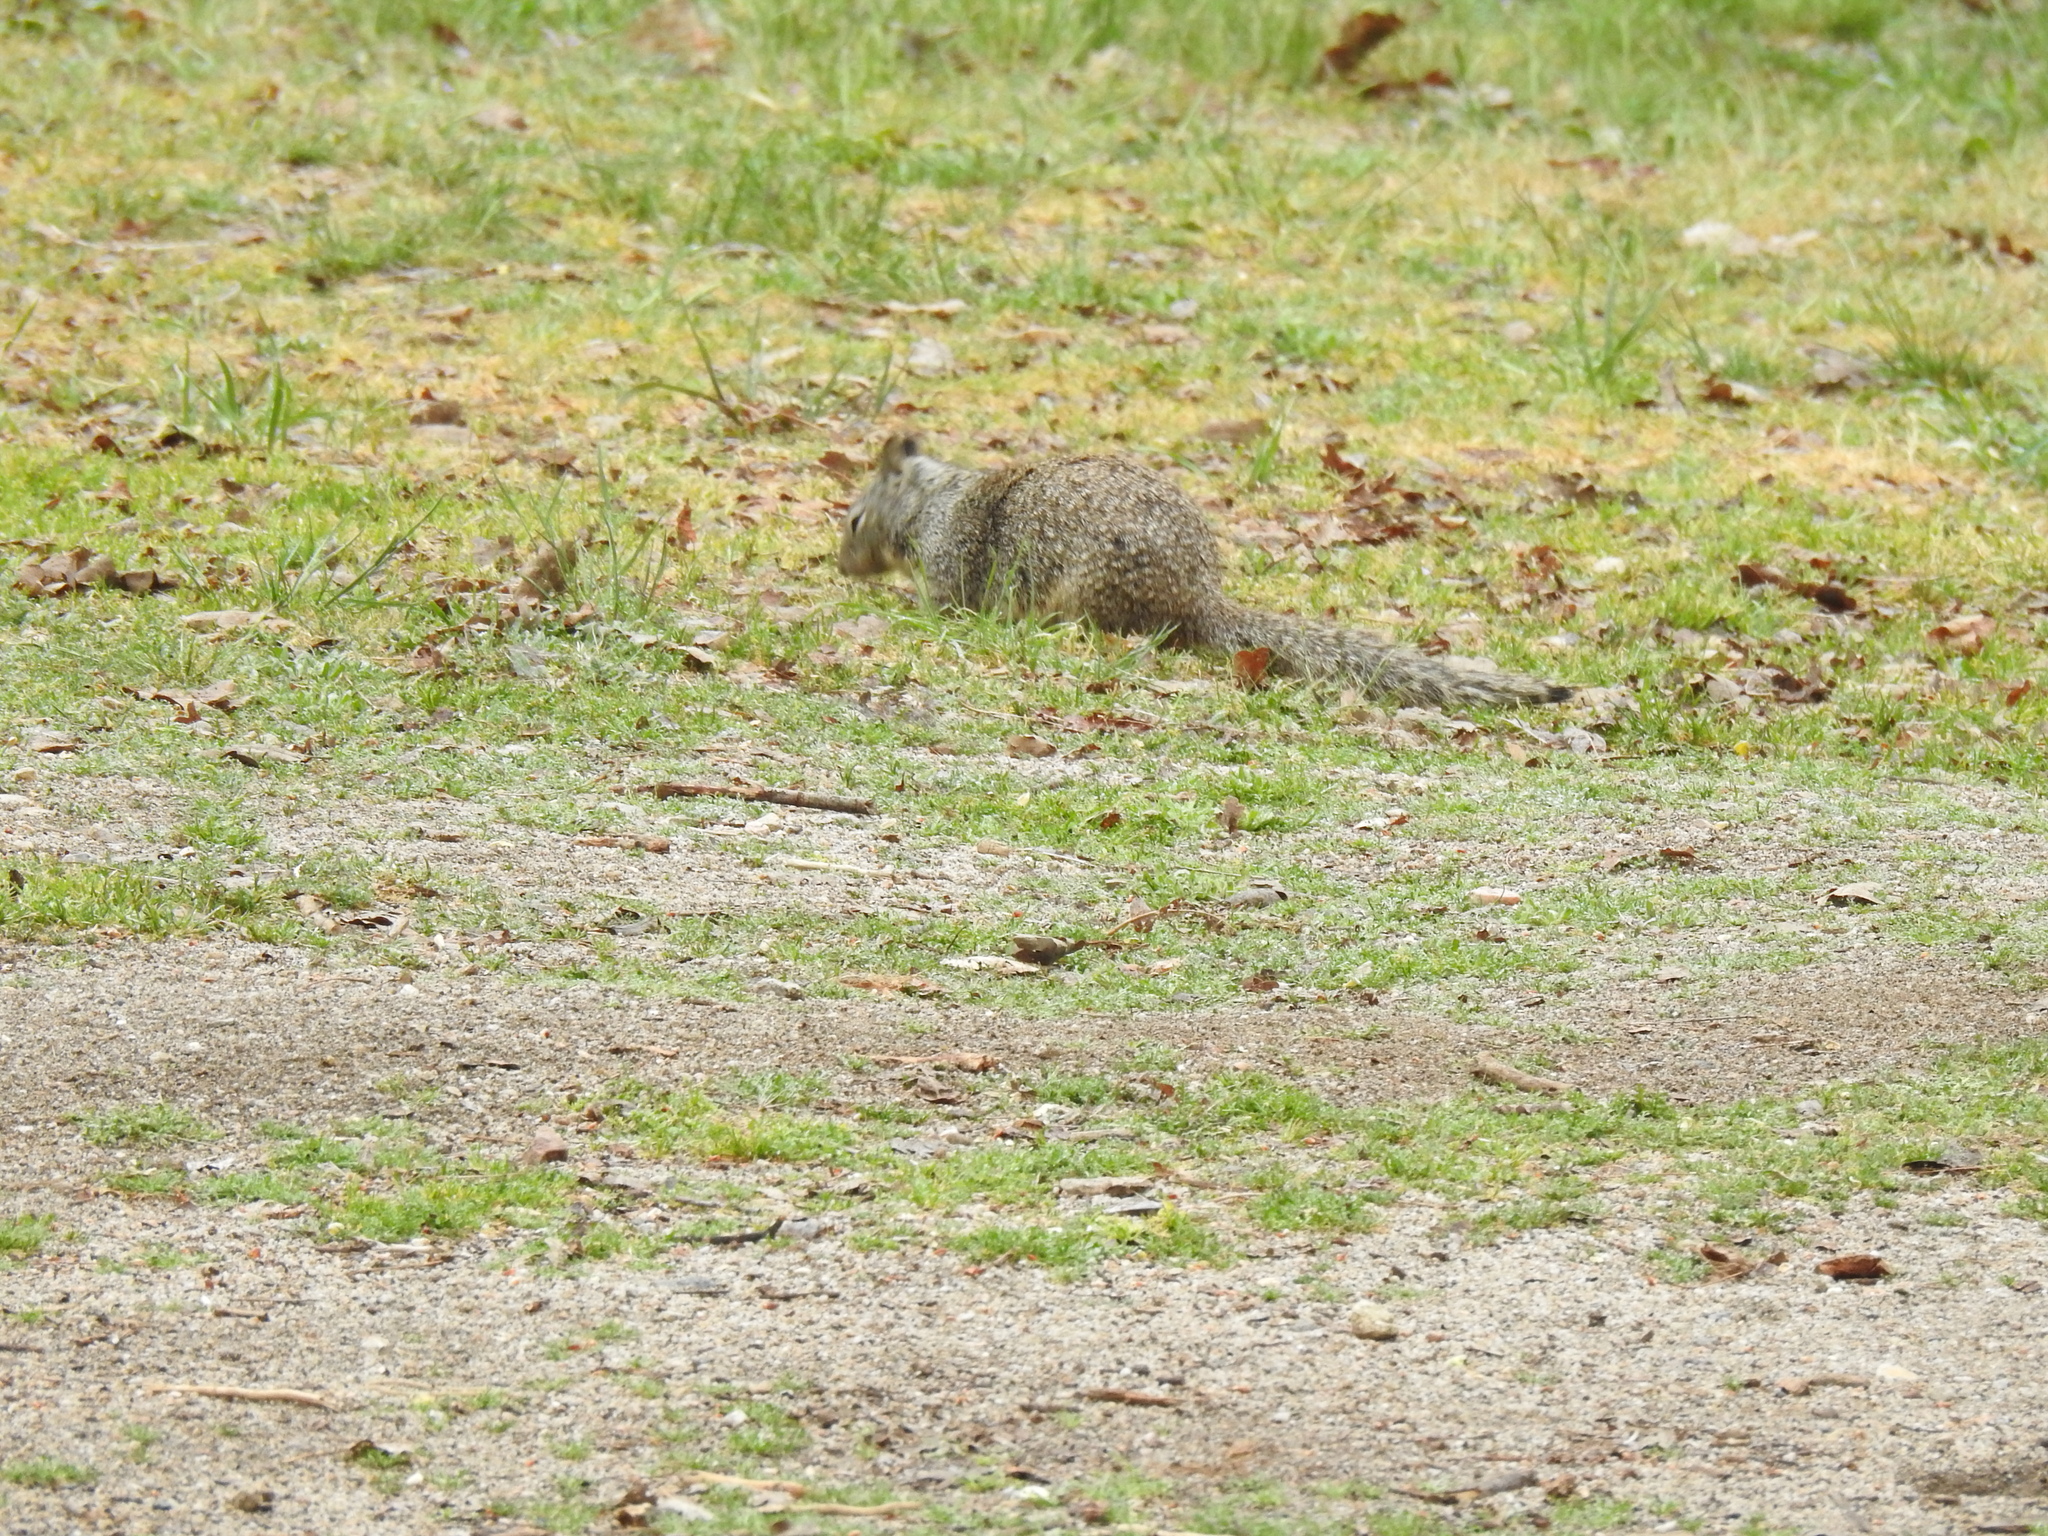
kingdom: Animalia
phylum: Chordata
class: Mammalia
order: Rodentia
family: Sciuridae
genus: Otospermophilus
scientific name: Otospermophilus beecheyi
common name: California ground squirrel
